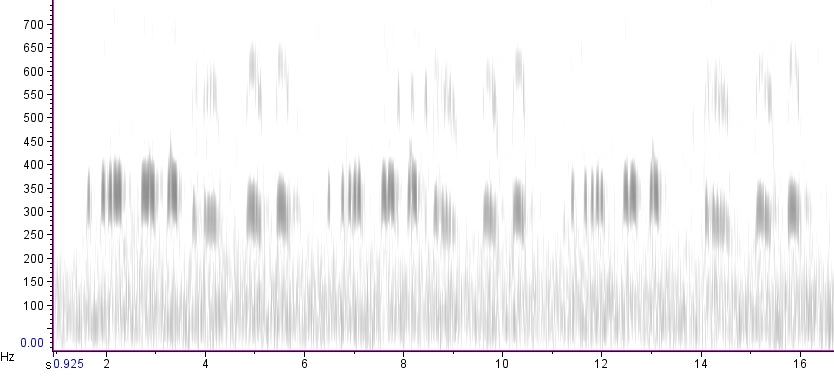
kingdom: Animalia
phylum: Chordata
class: Aves
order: Strigiformes
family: Strigidae
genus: Bubo
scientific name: Bubo virginianus
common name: Great horned owl
